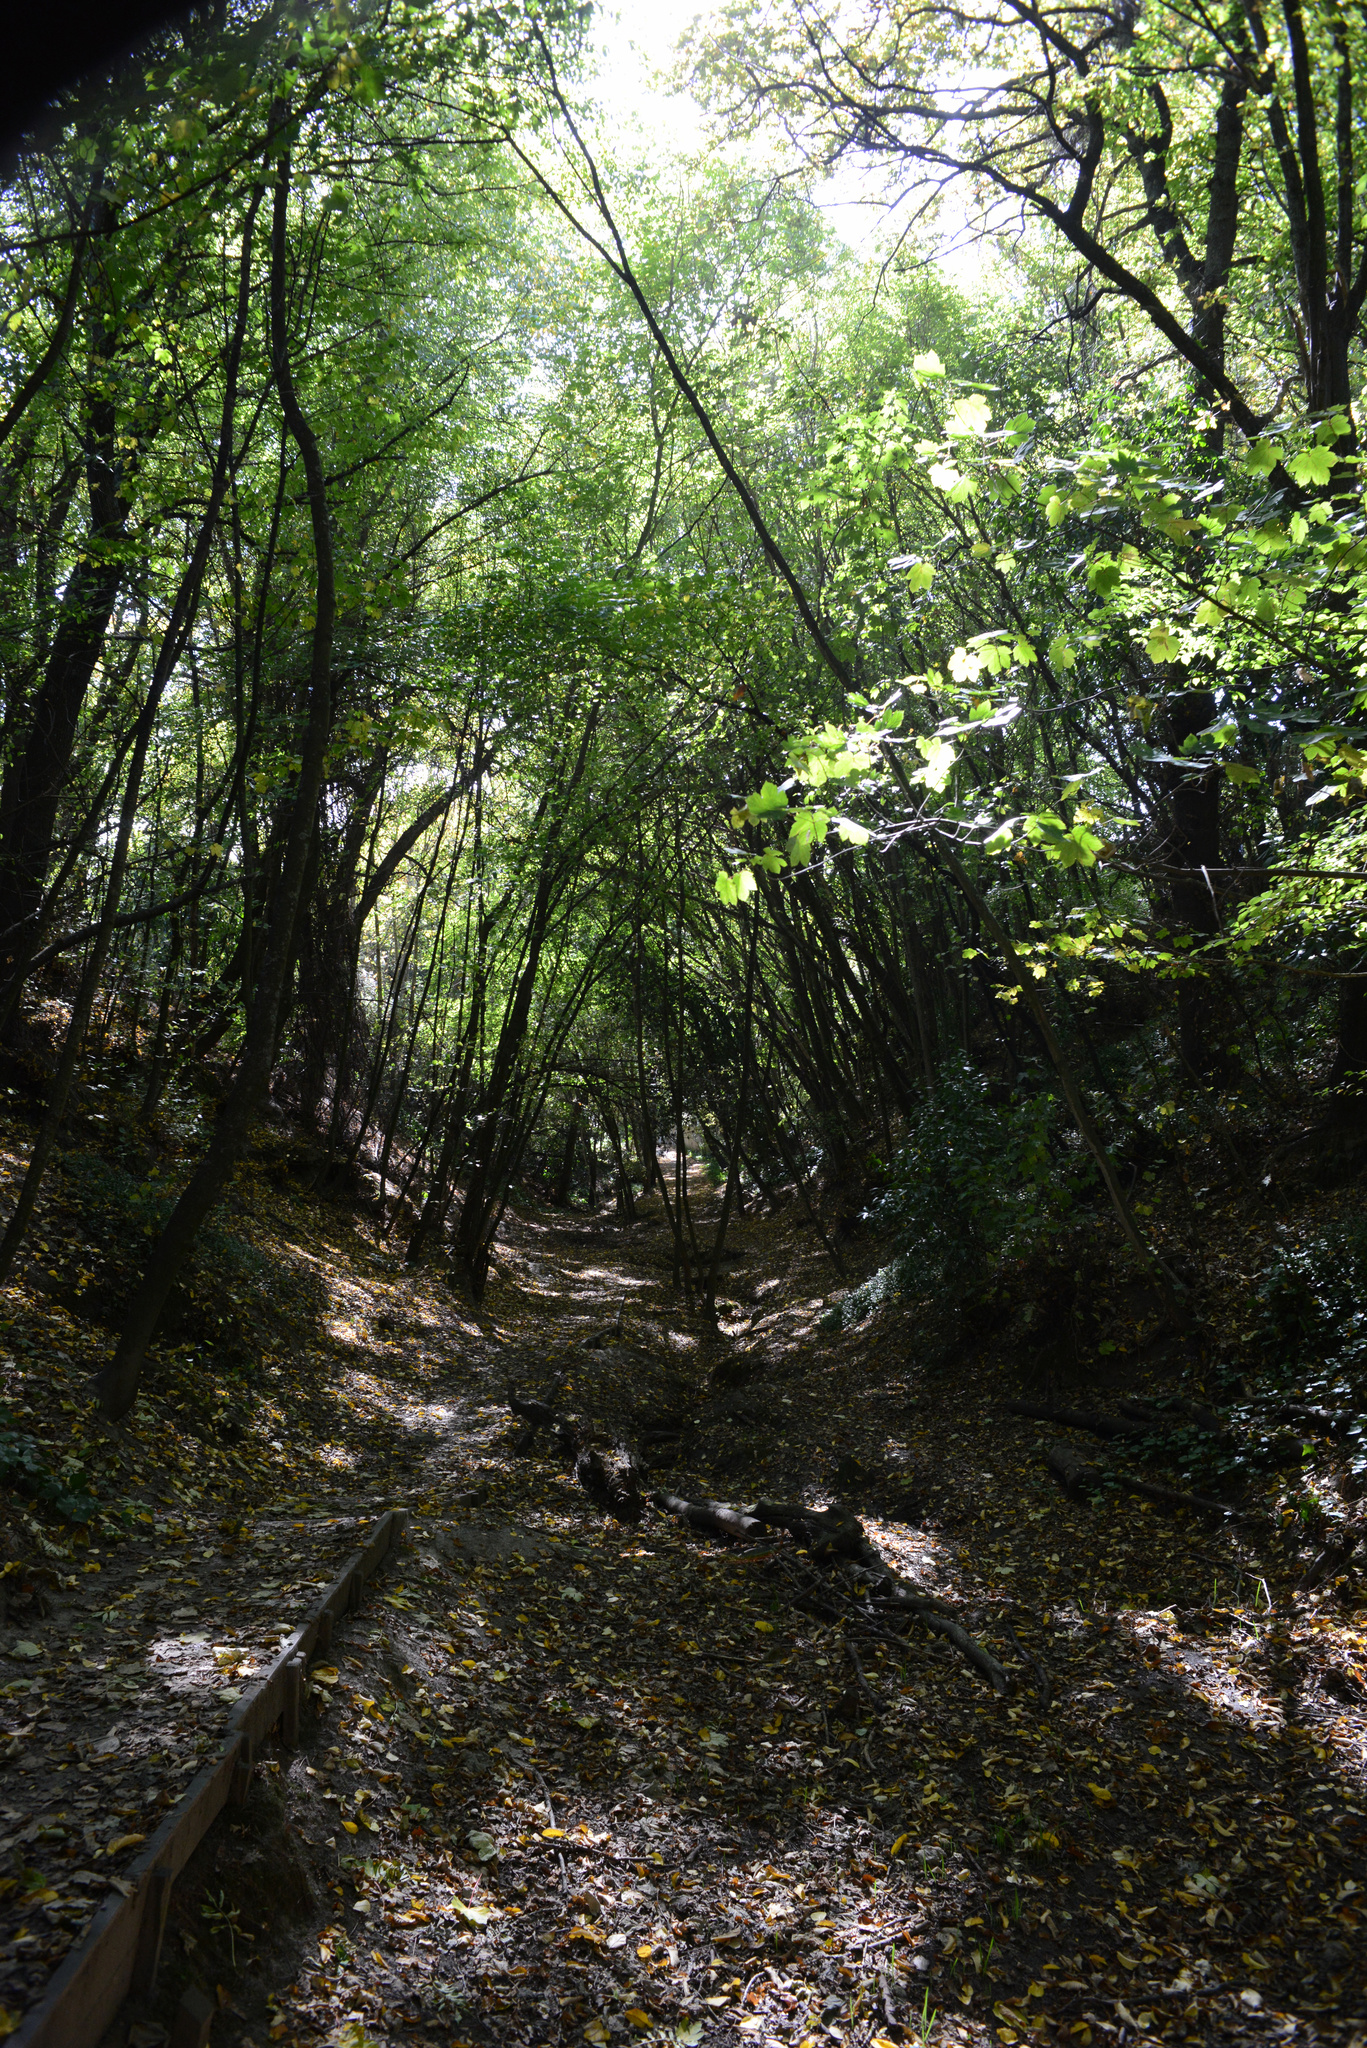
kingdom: Plantae
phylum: Tracheophyta
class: Magnoliopsida
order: Sapindales
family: Sapindaceae
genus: Acer
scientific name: Acer pseudoplatanus
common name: Sycamore
